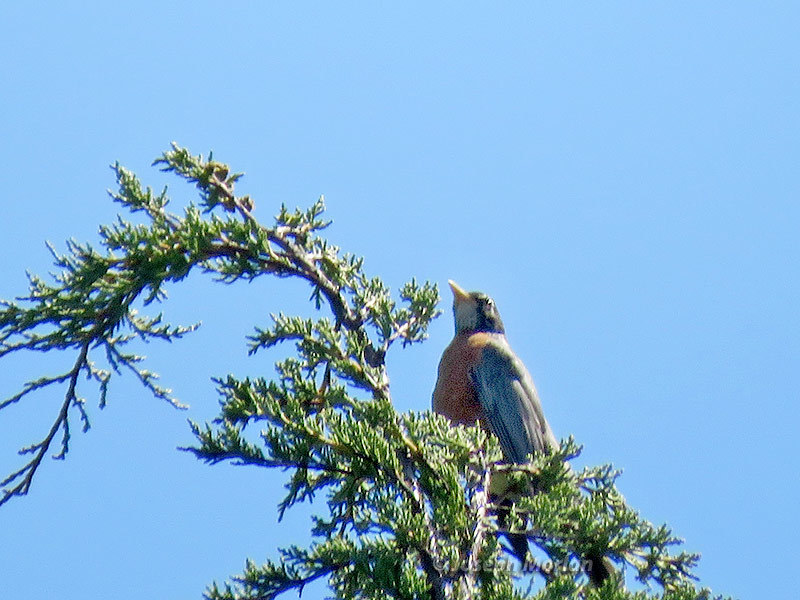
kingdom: Animalia
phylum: Chordata
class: Aves
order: Passeriformes
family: Turdidae
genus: Turdus
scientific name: Turdus migratorius
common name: American robin
